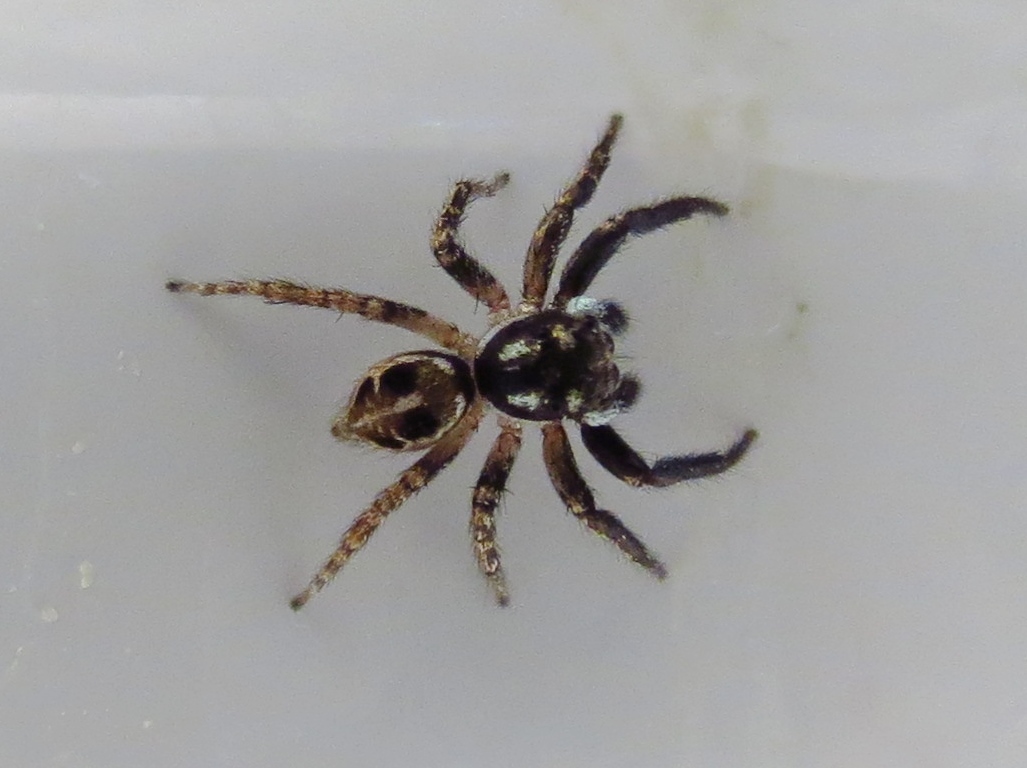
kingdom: Animalia
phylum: Arthropoda
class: Arachnida
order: Araneae
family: Salticidae
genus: Anasaitis
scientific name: Anasaitis canosa
